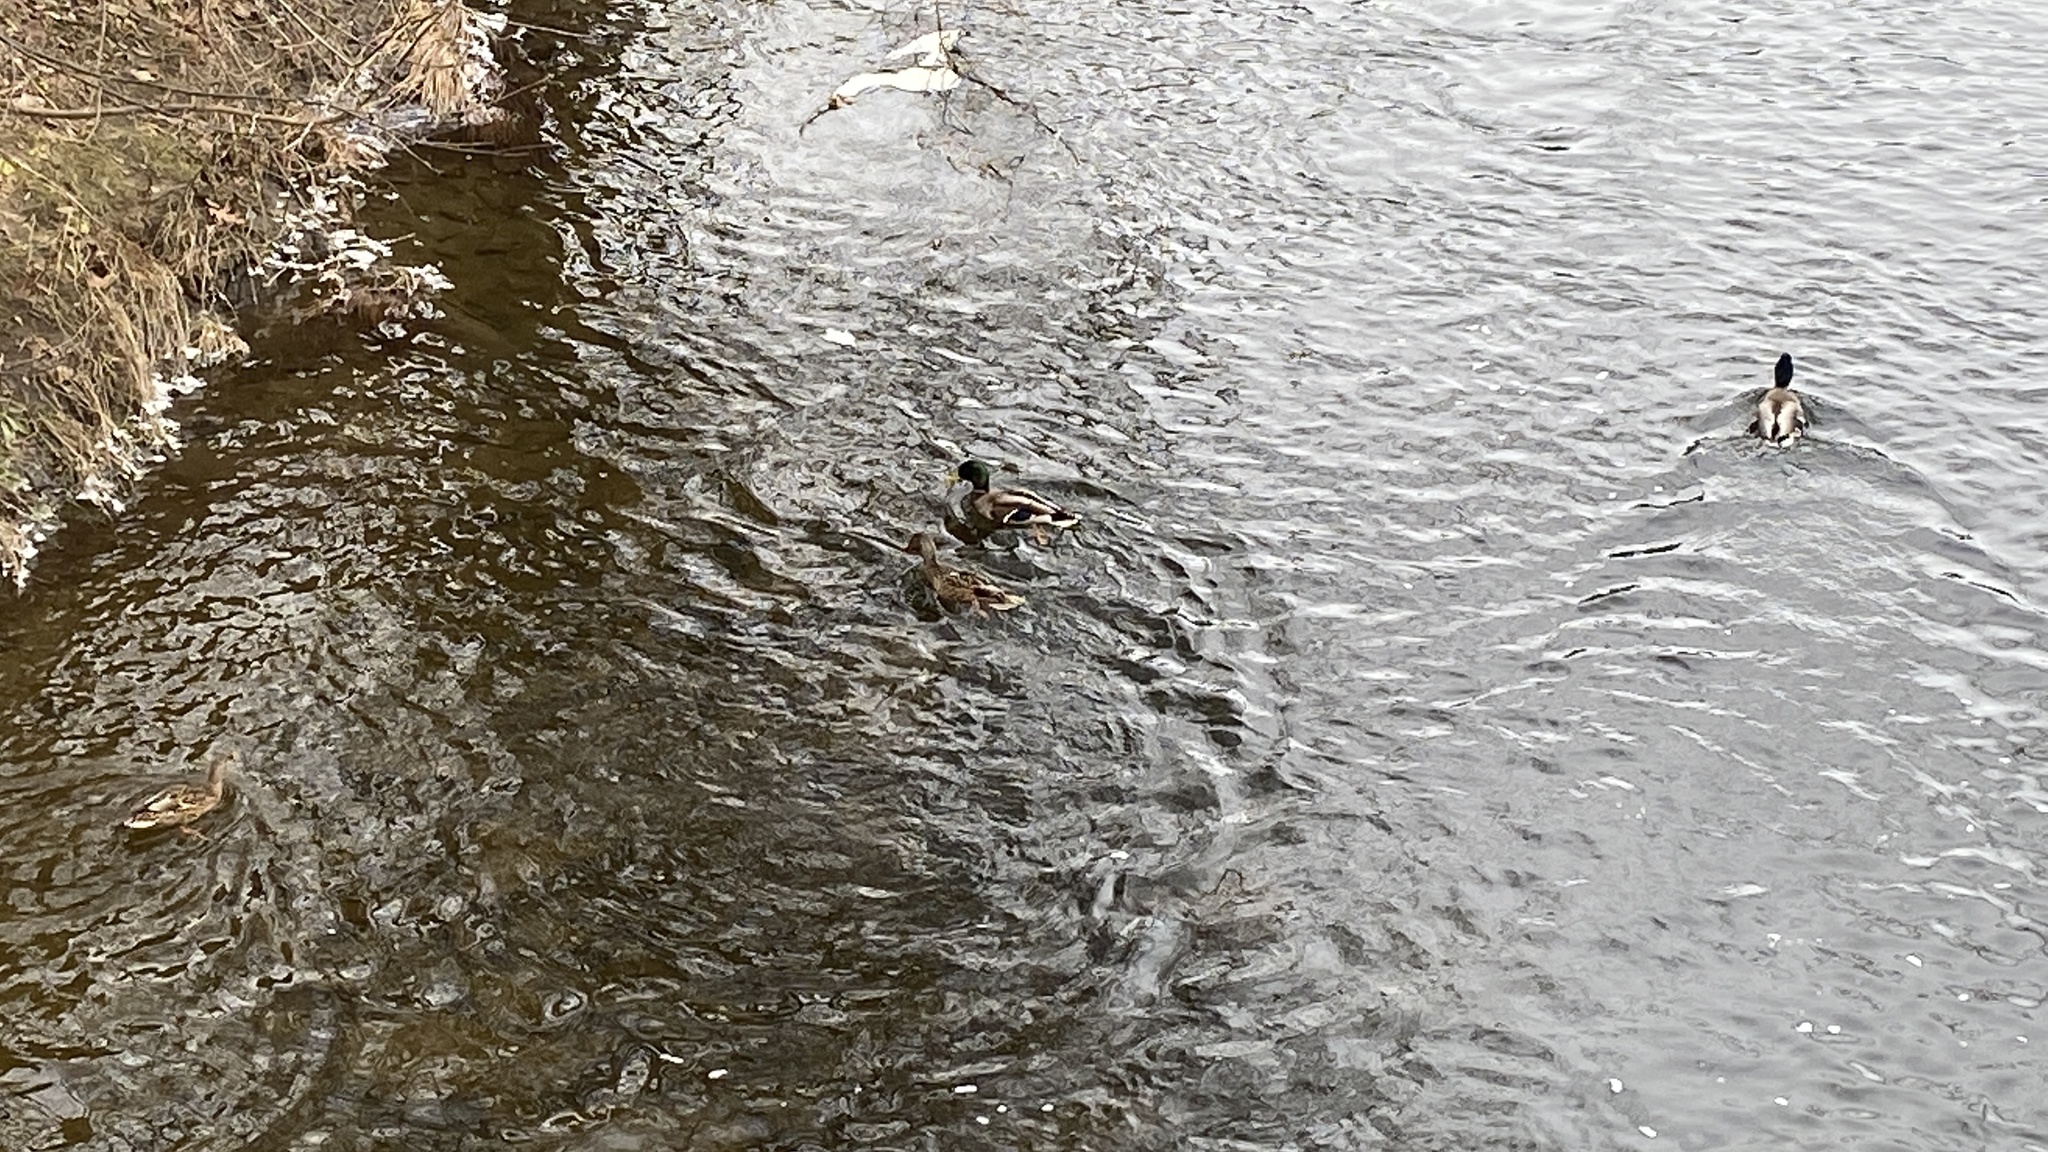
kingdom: Animalia
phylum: Chordata
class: Aves
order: Anseriformes
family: Anatidae
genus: Anas
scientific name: Anas platyrhynchos
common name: Mallard
